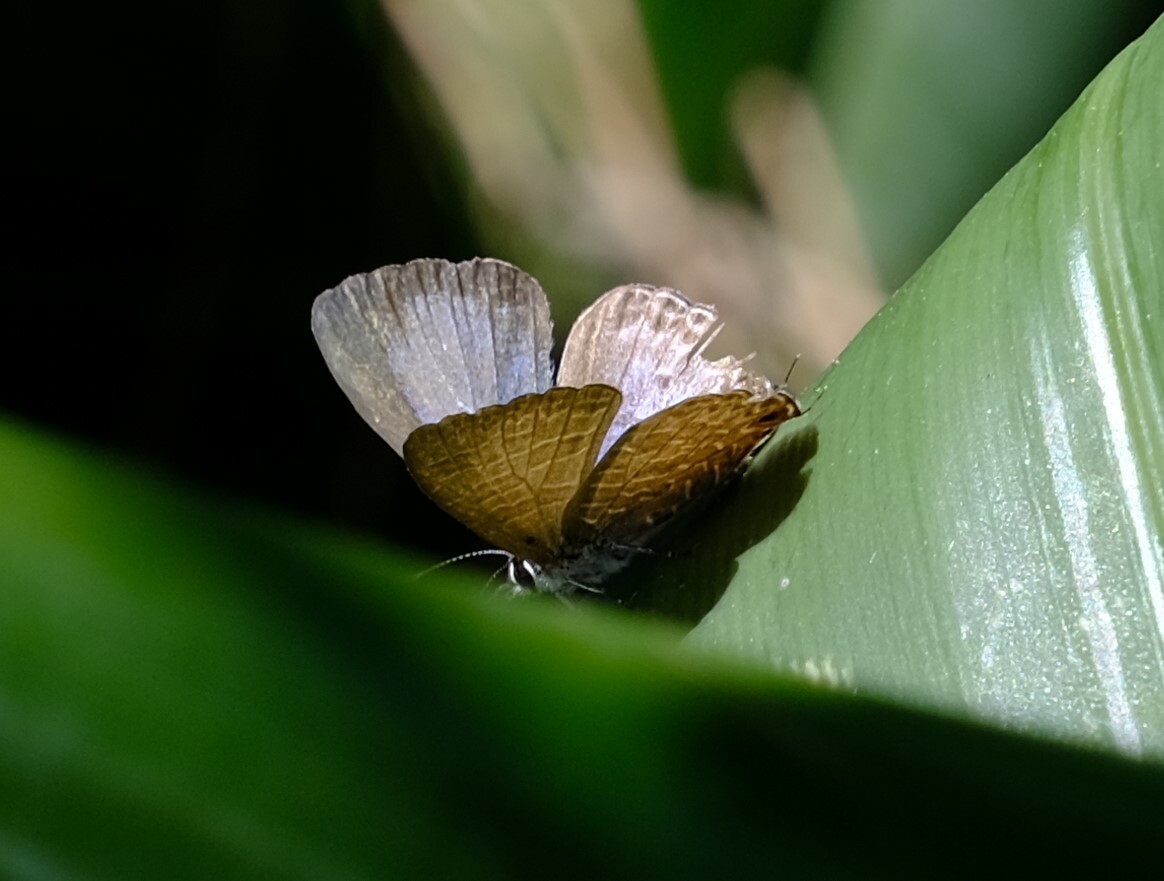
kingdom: Animalia
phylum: Arthropoda
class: Insecta
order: Lepidoptera
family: Lycaenidae
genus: Nacaduba
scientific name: Nacaduba berenice
